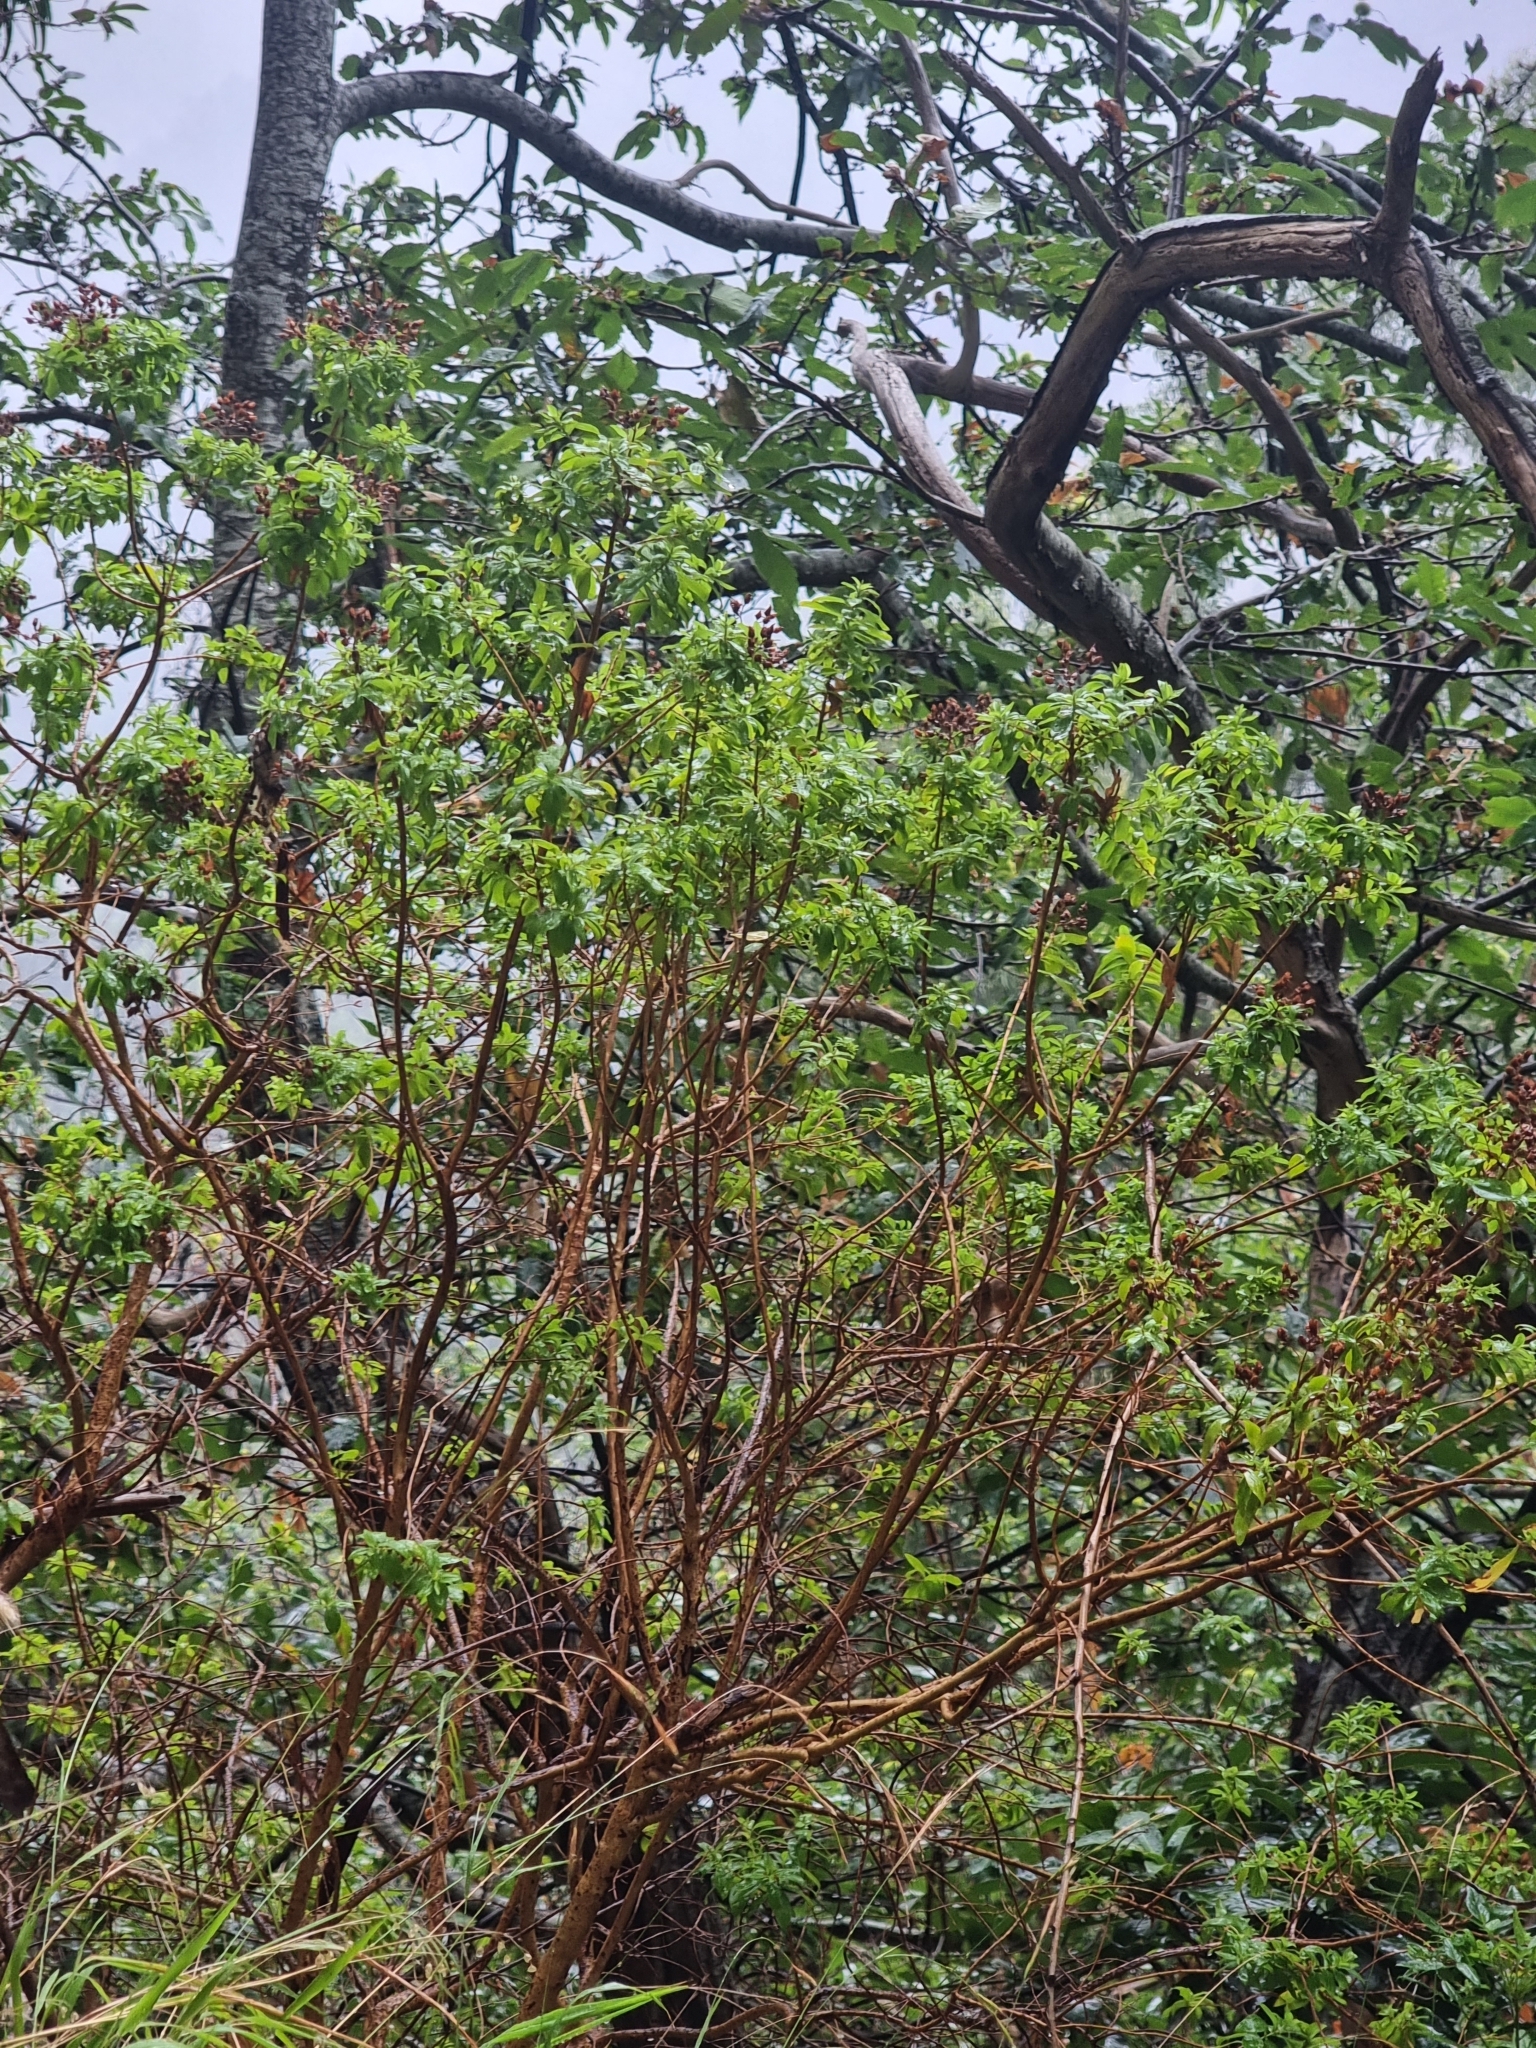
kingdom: Plantae
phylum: Tracheophyta
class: Magnoliopsida
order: Malpighiales
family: Hypericaceae
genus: Hypericum
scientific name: Hypericum glandulosum
